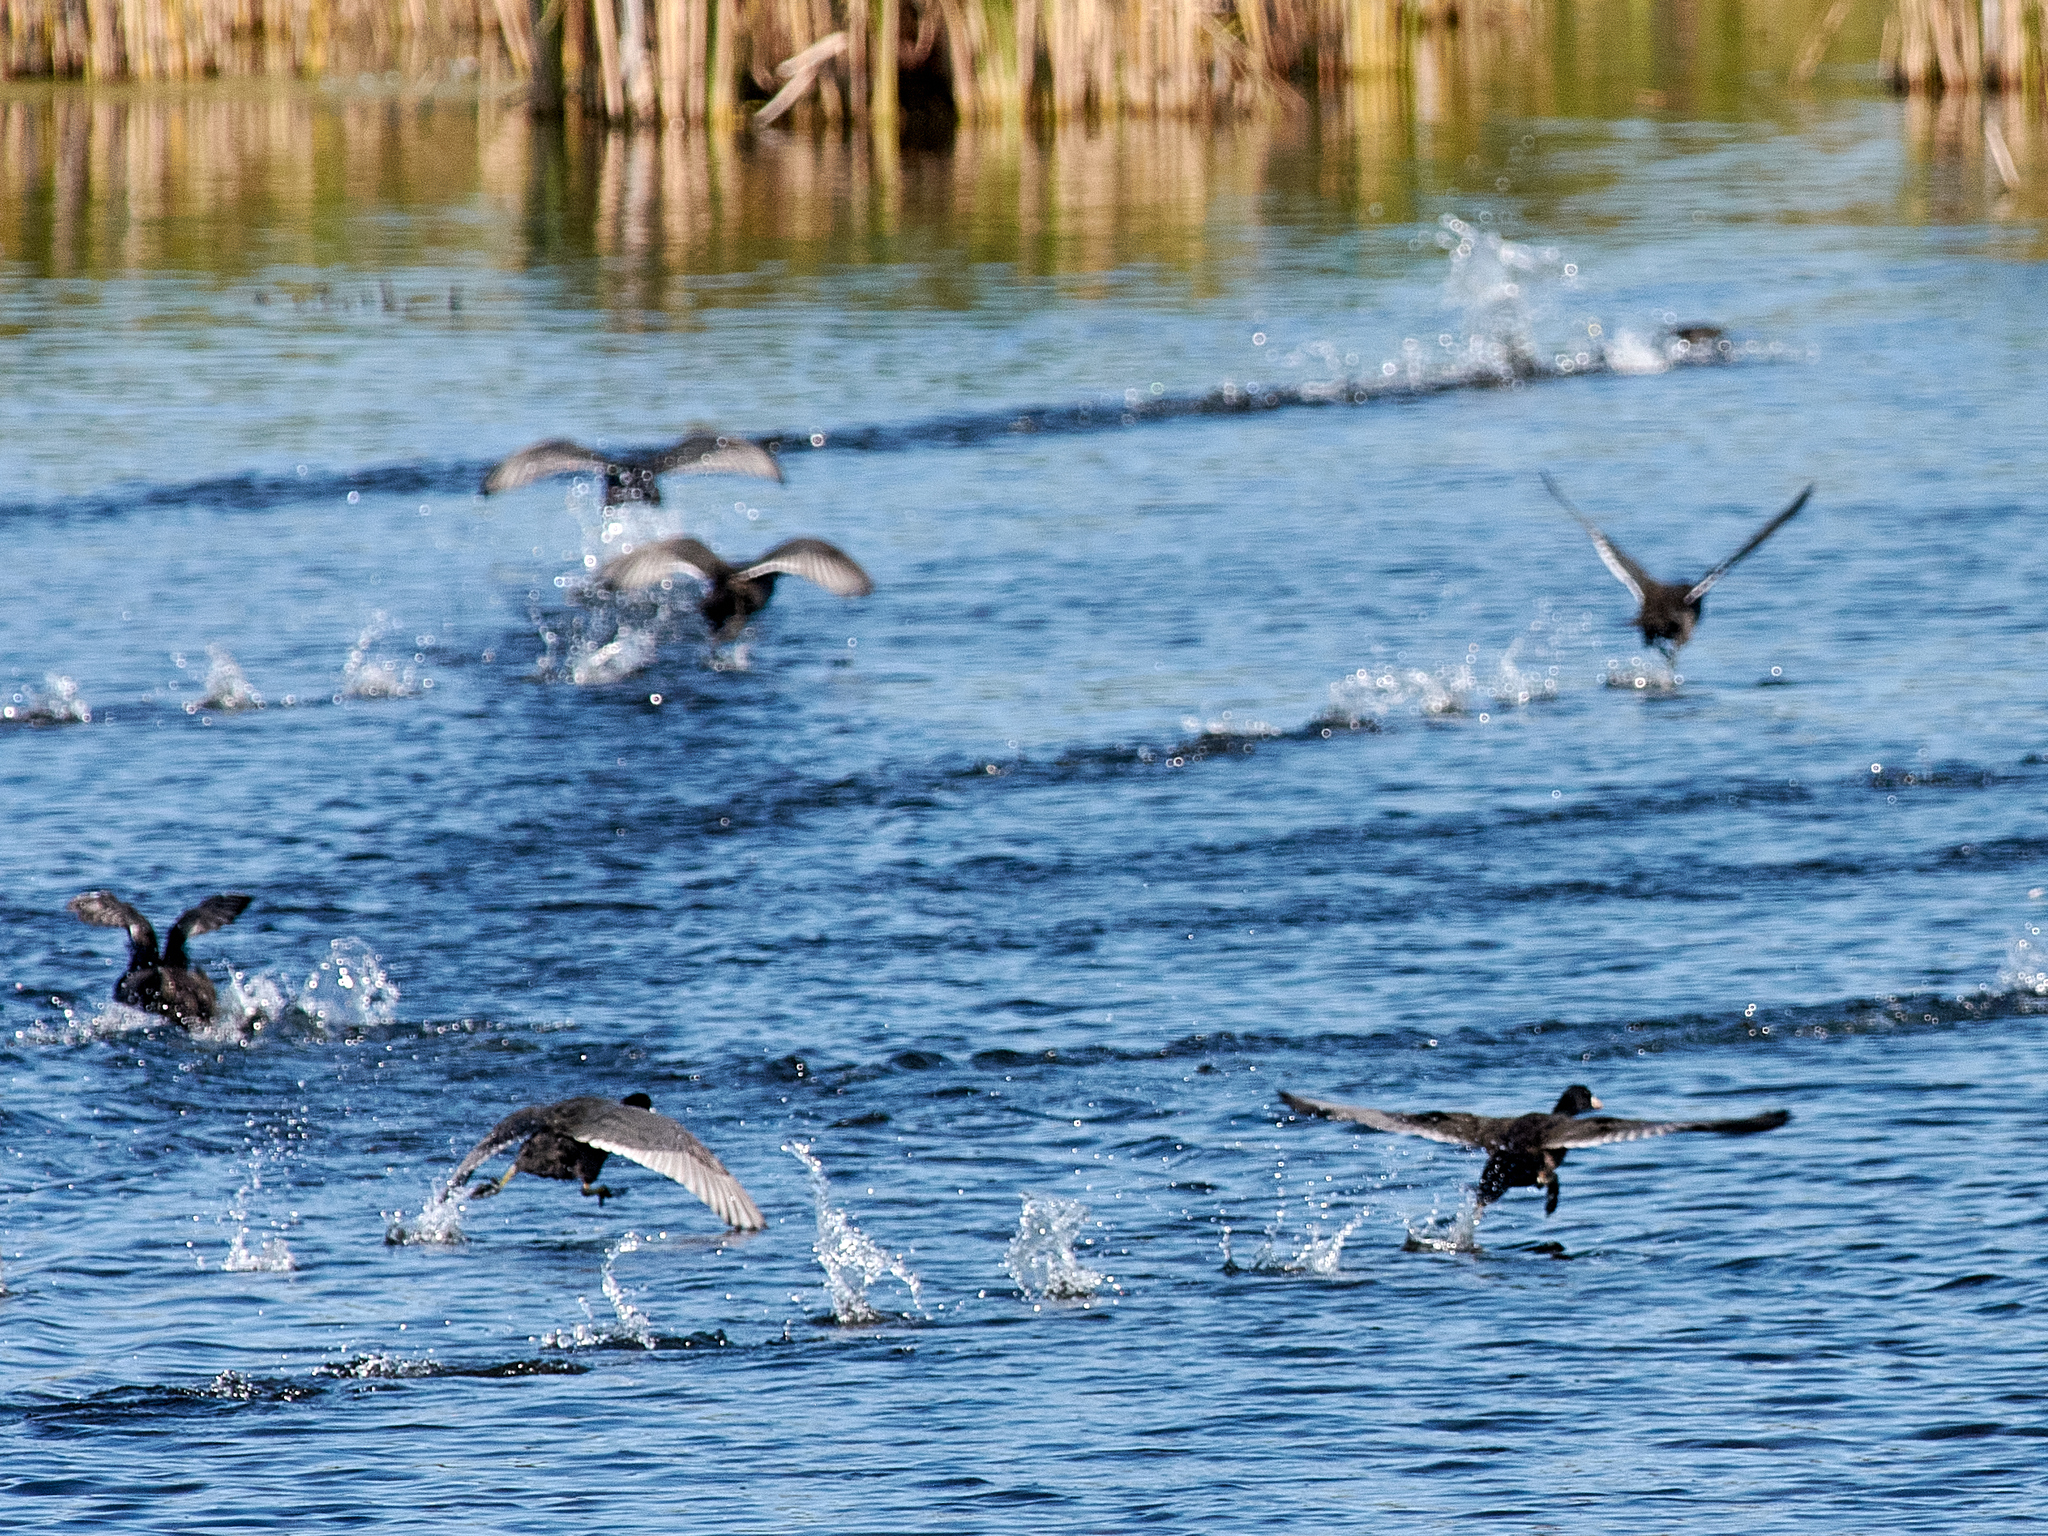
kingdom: Animalia
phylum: Chordata
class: Aves
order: Gruiformes
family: Rallidae
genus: Fulica
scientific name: Fulica atra
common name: Eurasian coot
